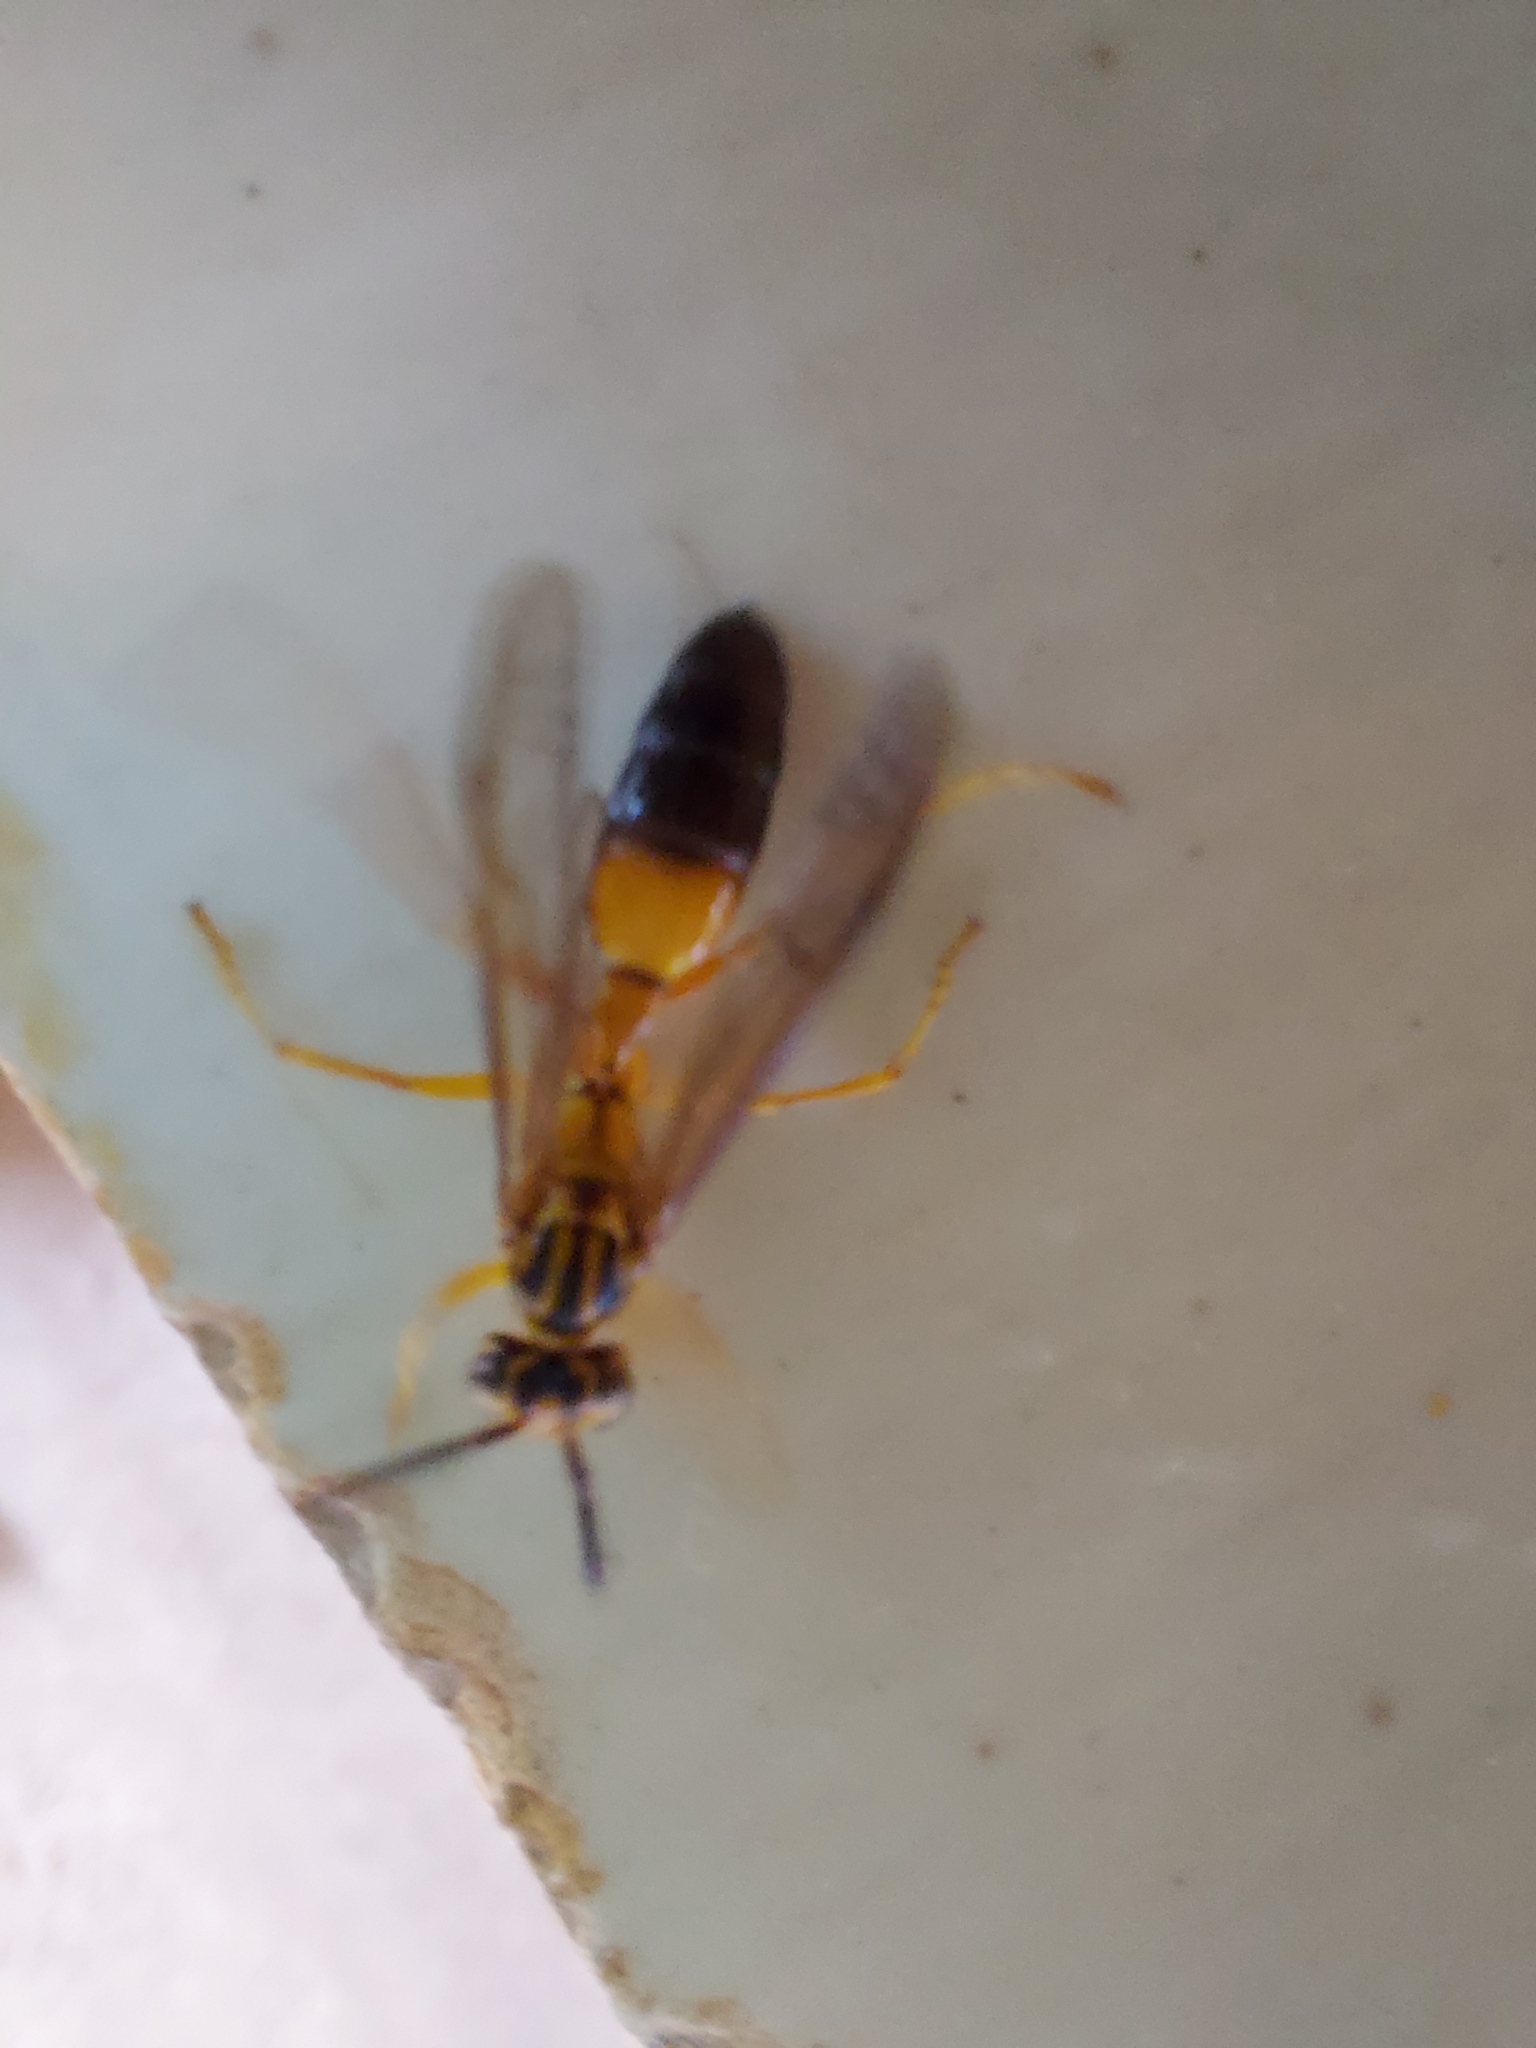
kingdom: Animalia
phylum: Arthropoda
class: Insecta
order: Hymenoptera
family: Vespidae
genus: Agelaia
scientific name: Agelaia pallipes
